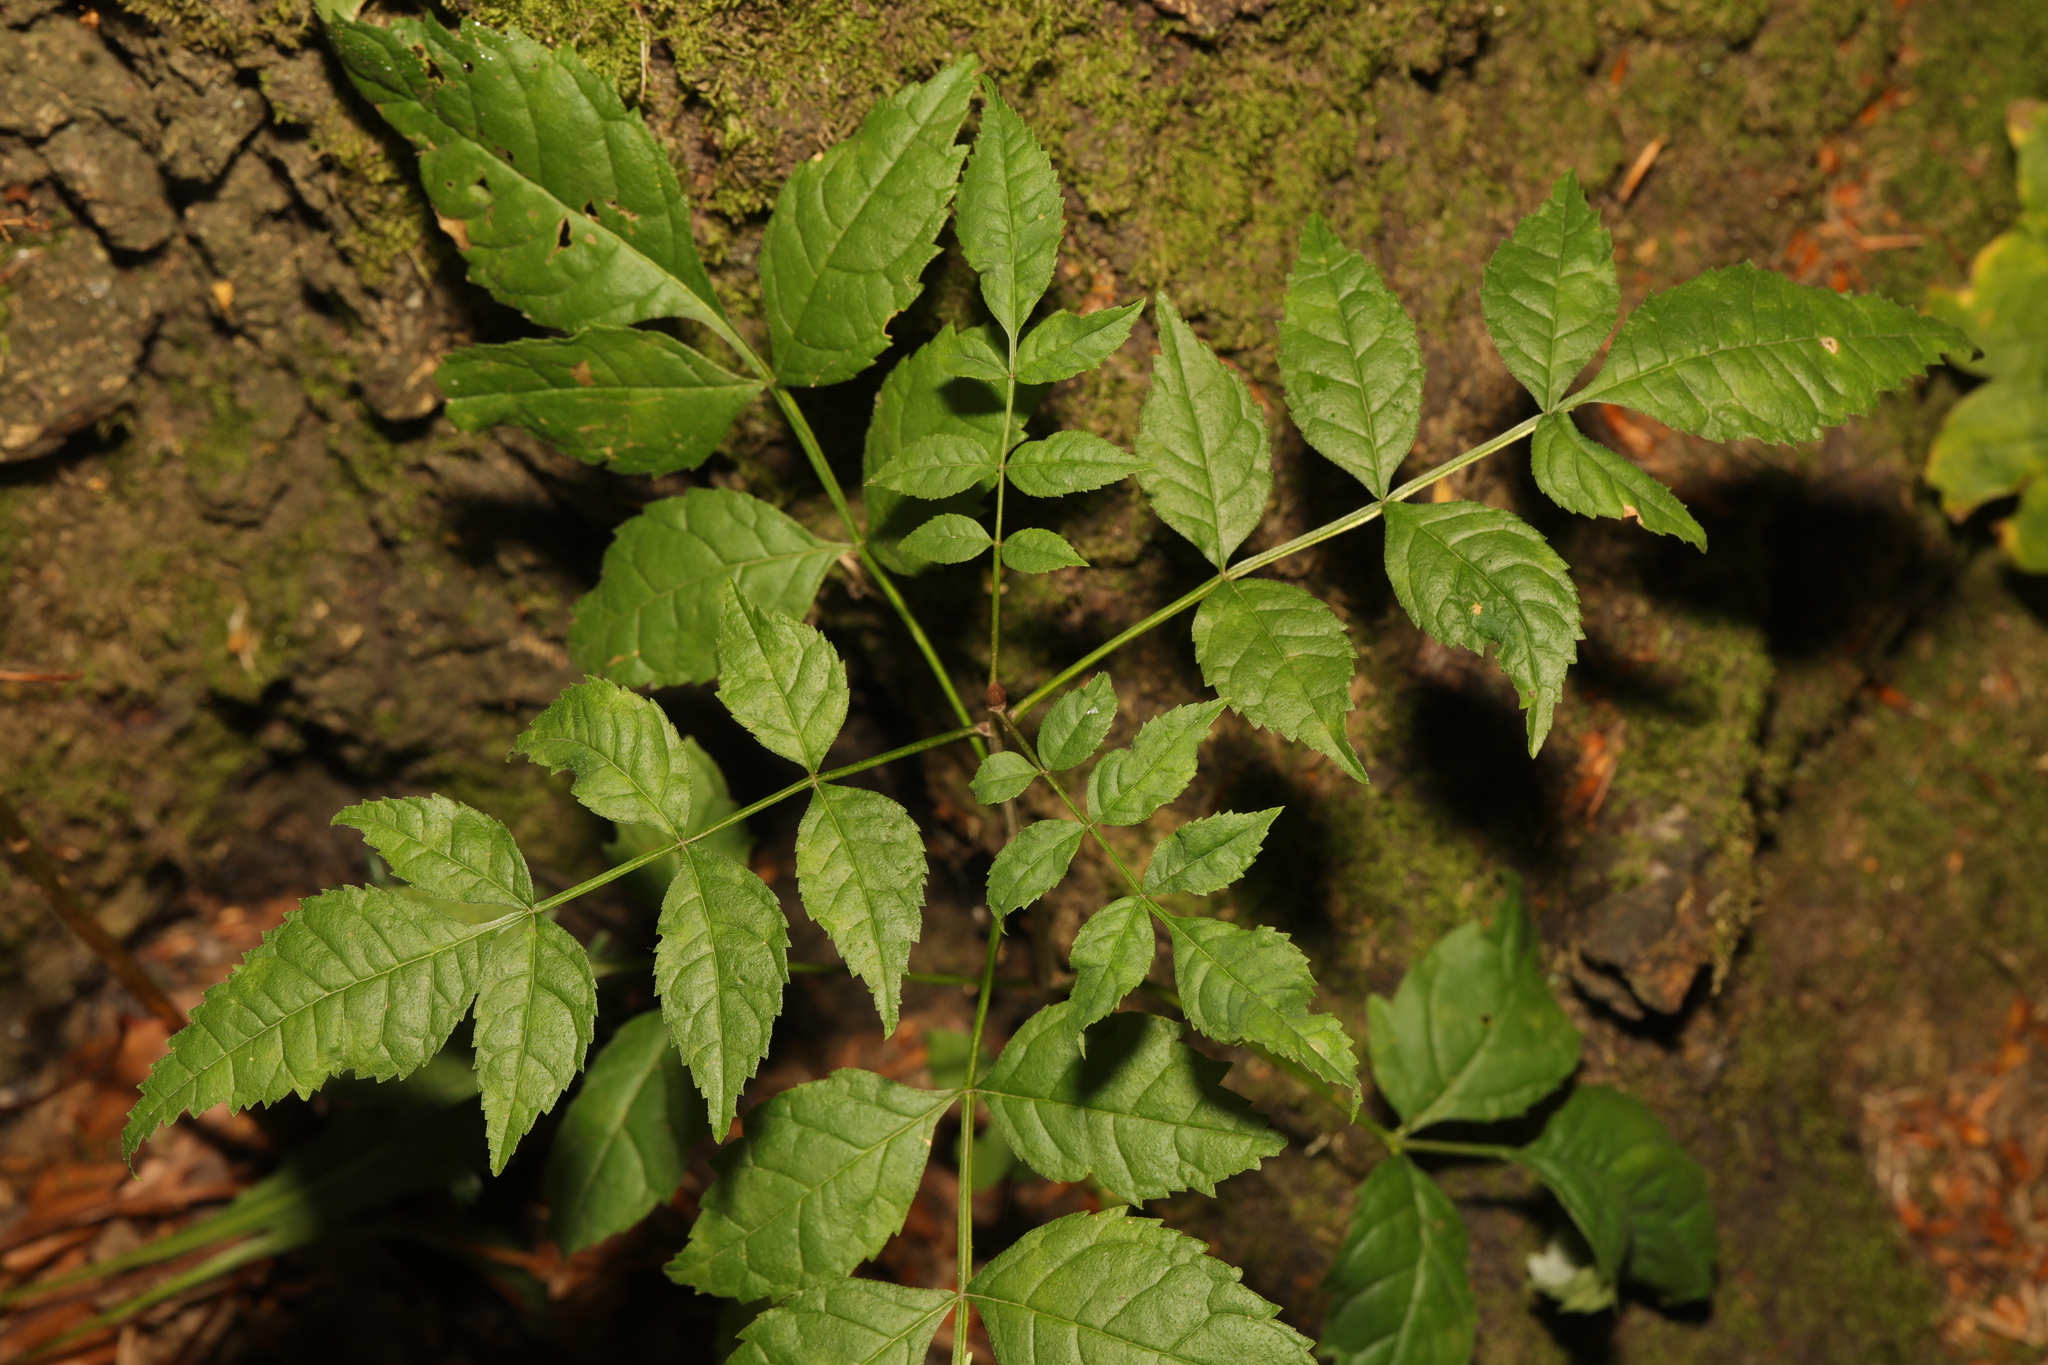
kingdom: Plantae
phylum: Tracheophyta
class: Magnoliopsida
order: Lamiales
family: Oleaceae
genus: Fraxinus
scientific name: Fraxinus excelsior
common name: European ash
